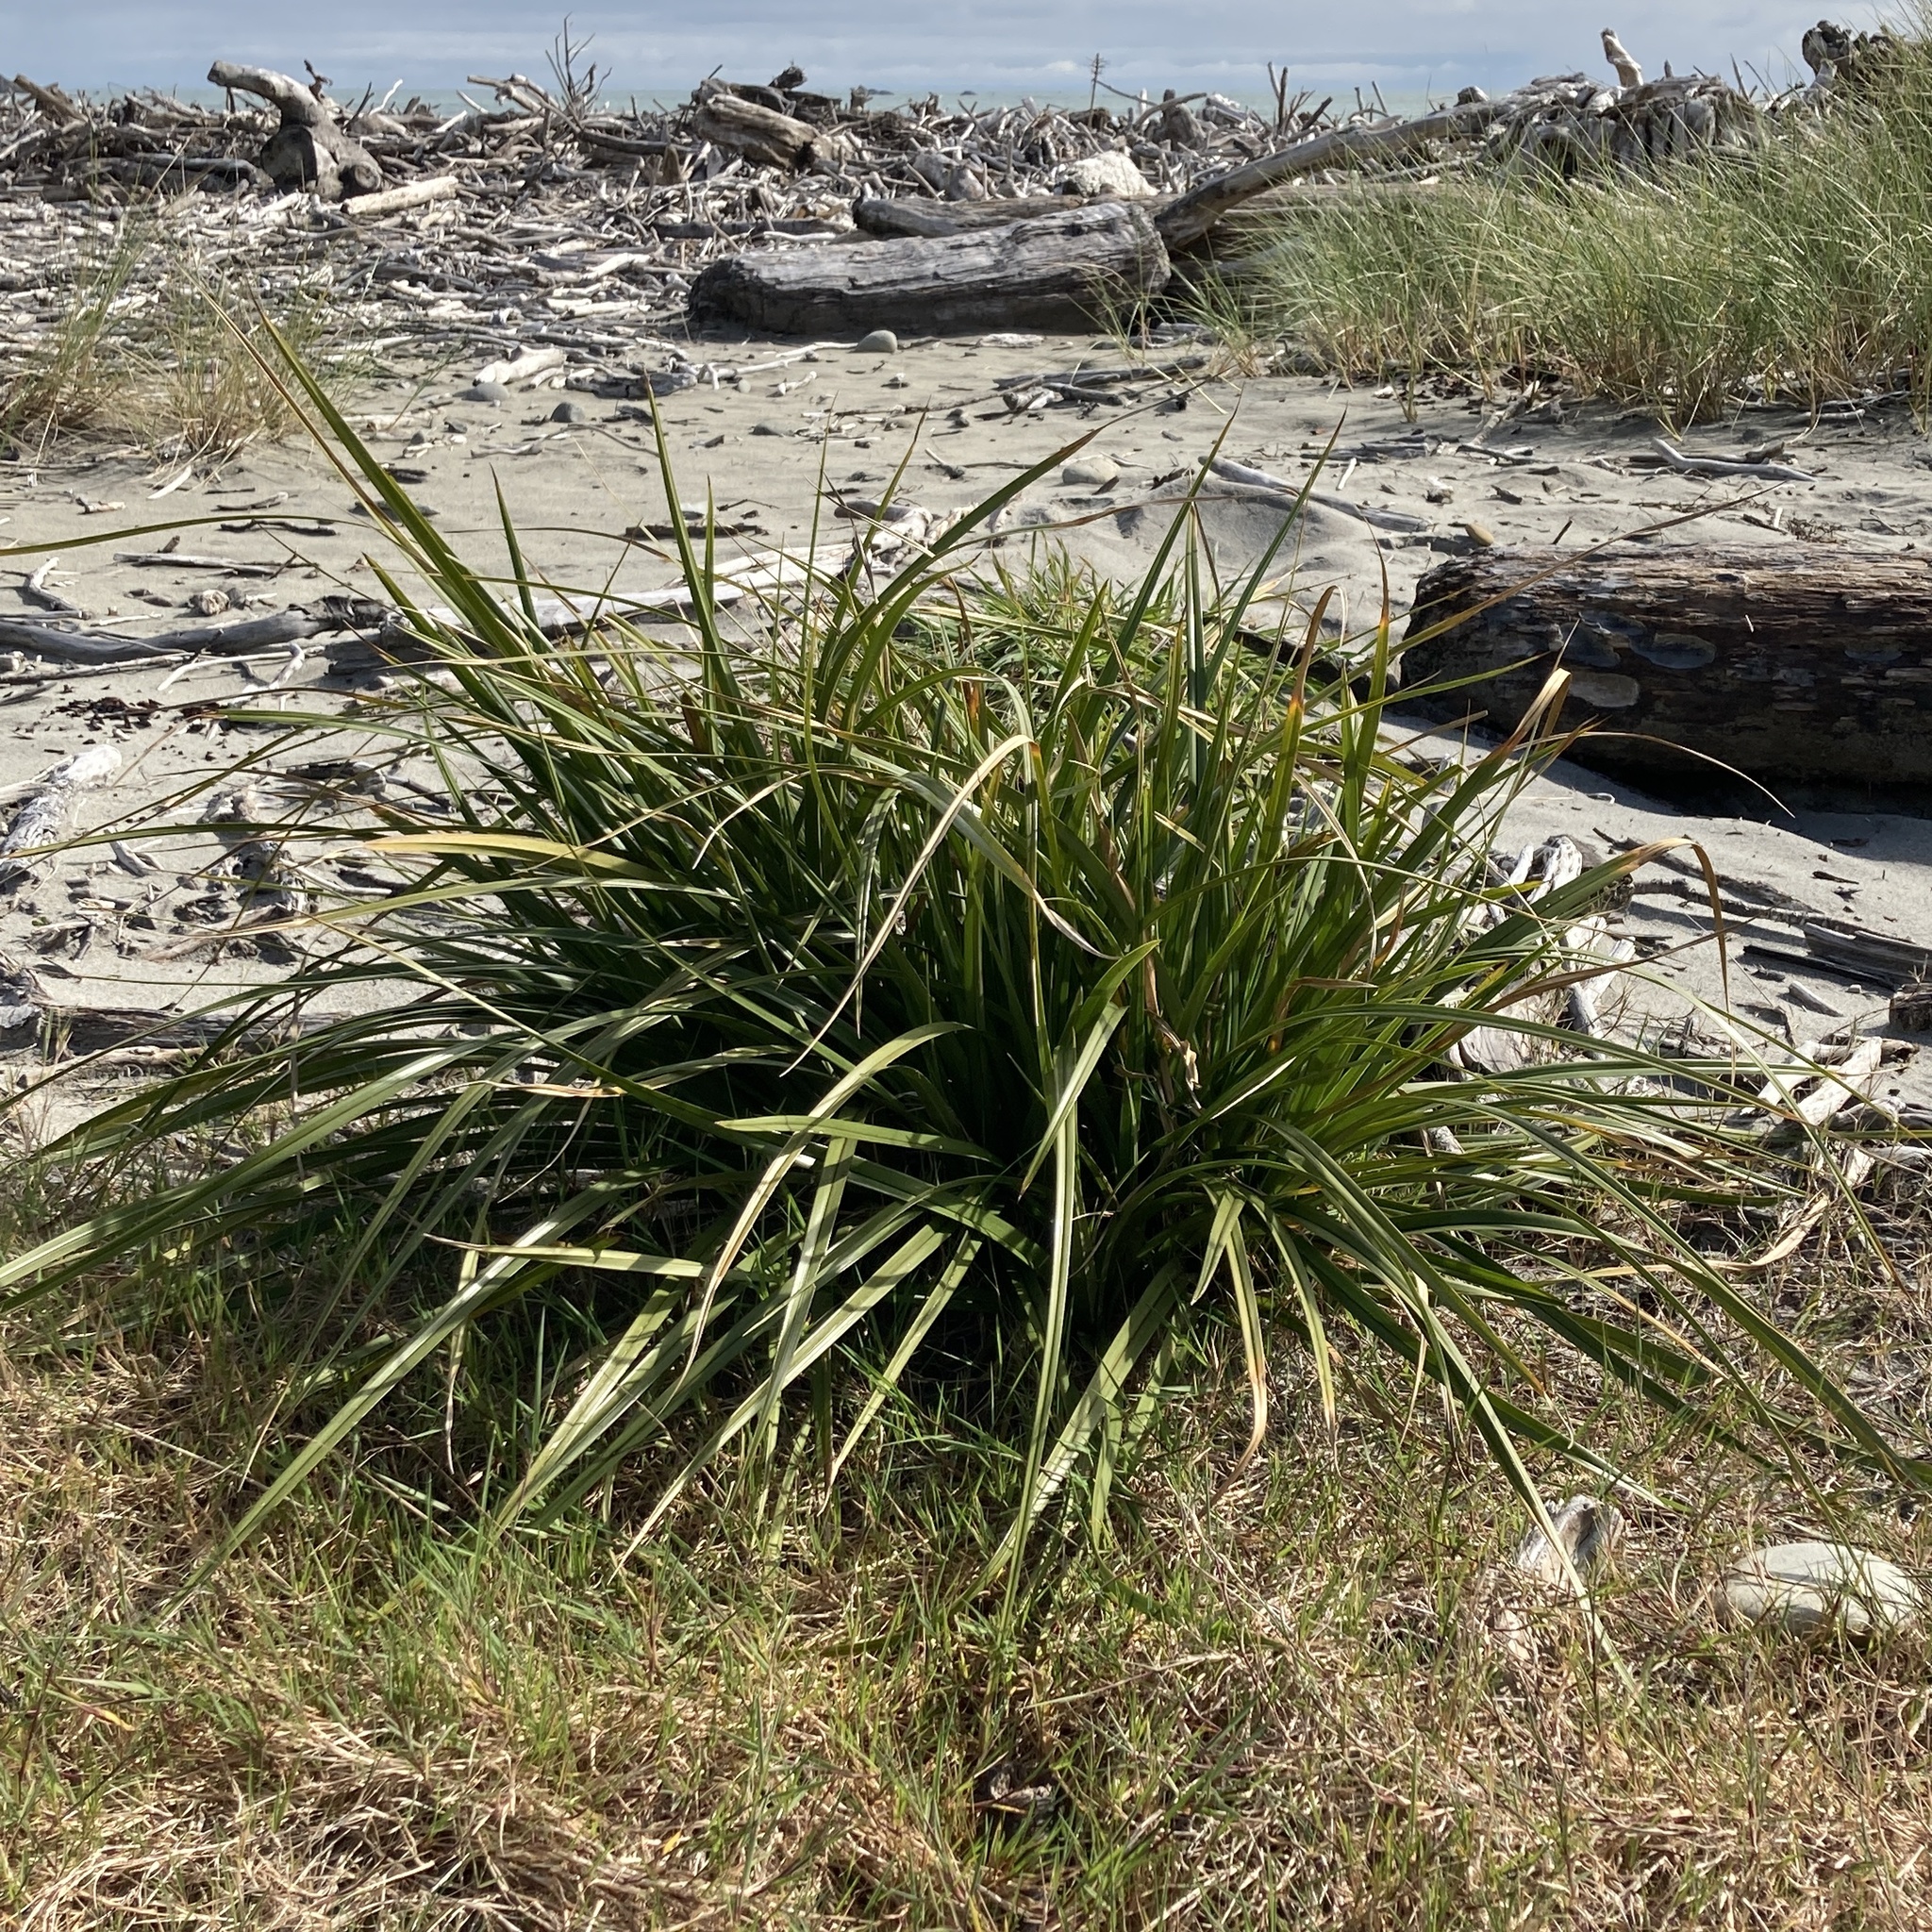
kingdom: Plantae
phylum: Tracheophyta
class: Liliopsida
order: Poales
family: Cyperaceae
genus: Cyperus
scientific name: Cyperus ustulatus
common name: Giant umbrella-sedge
